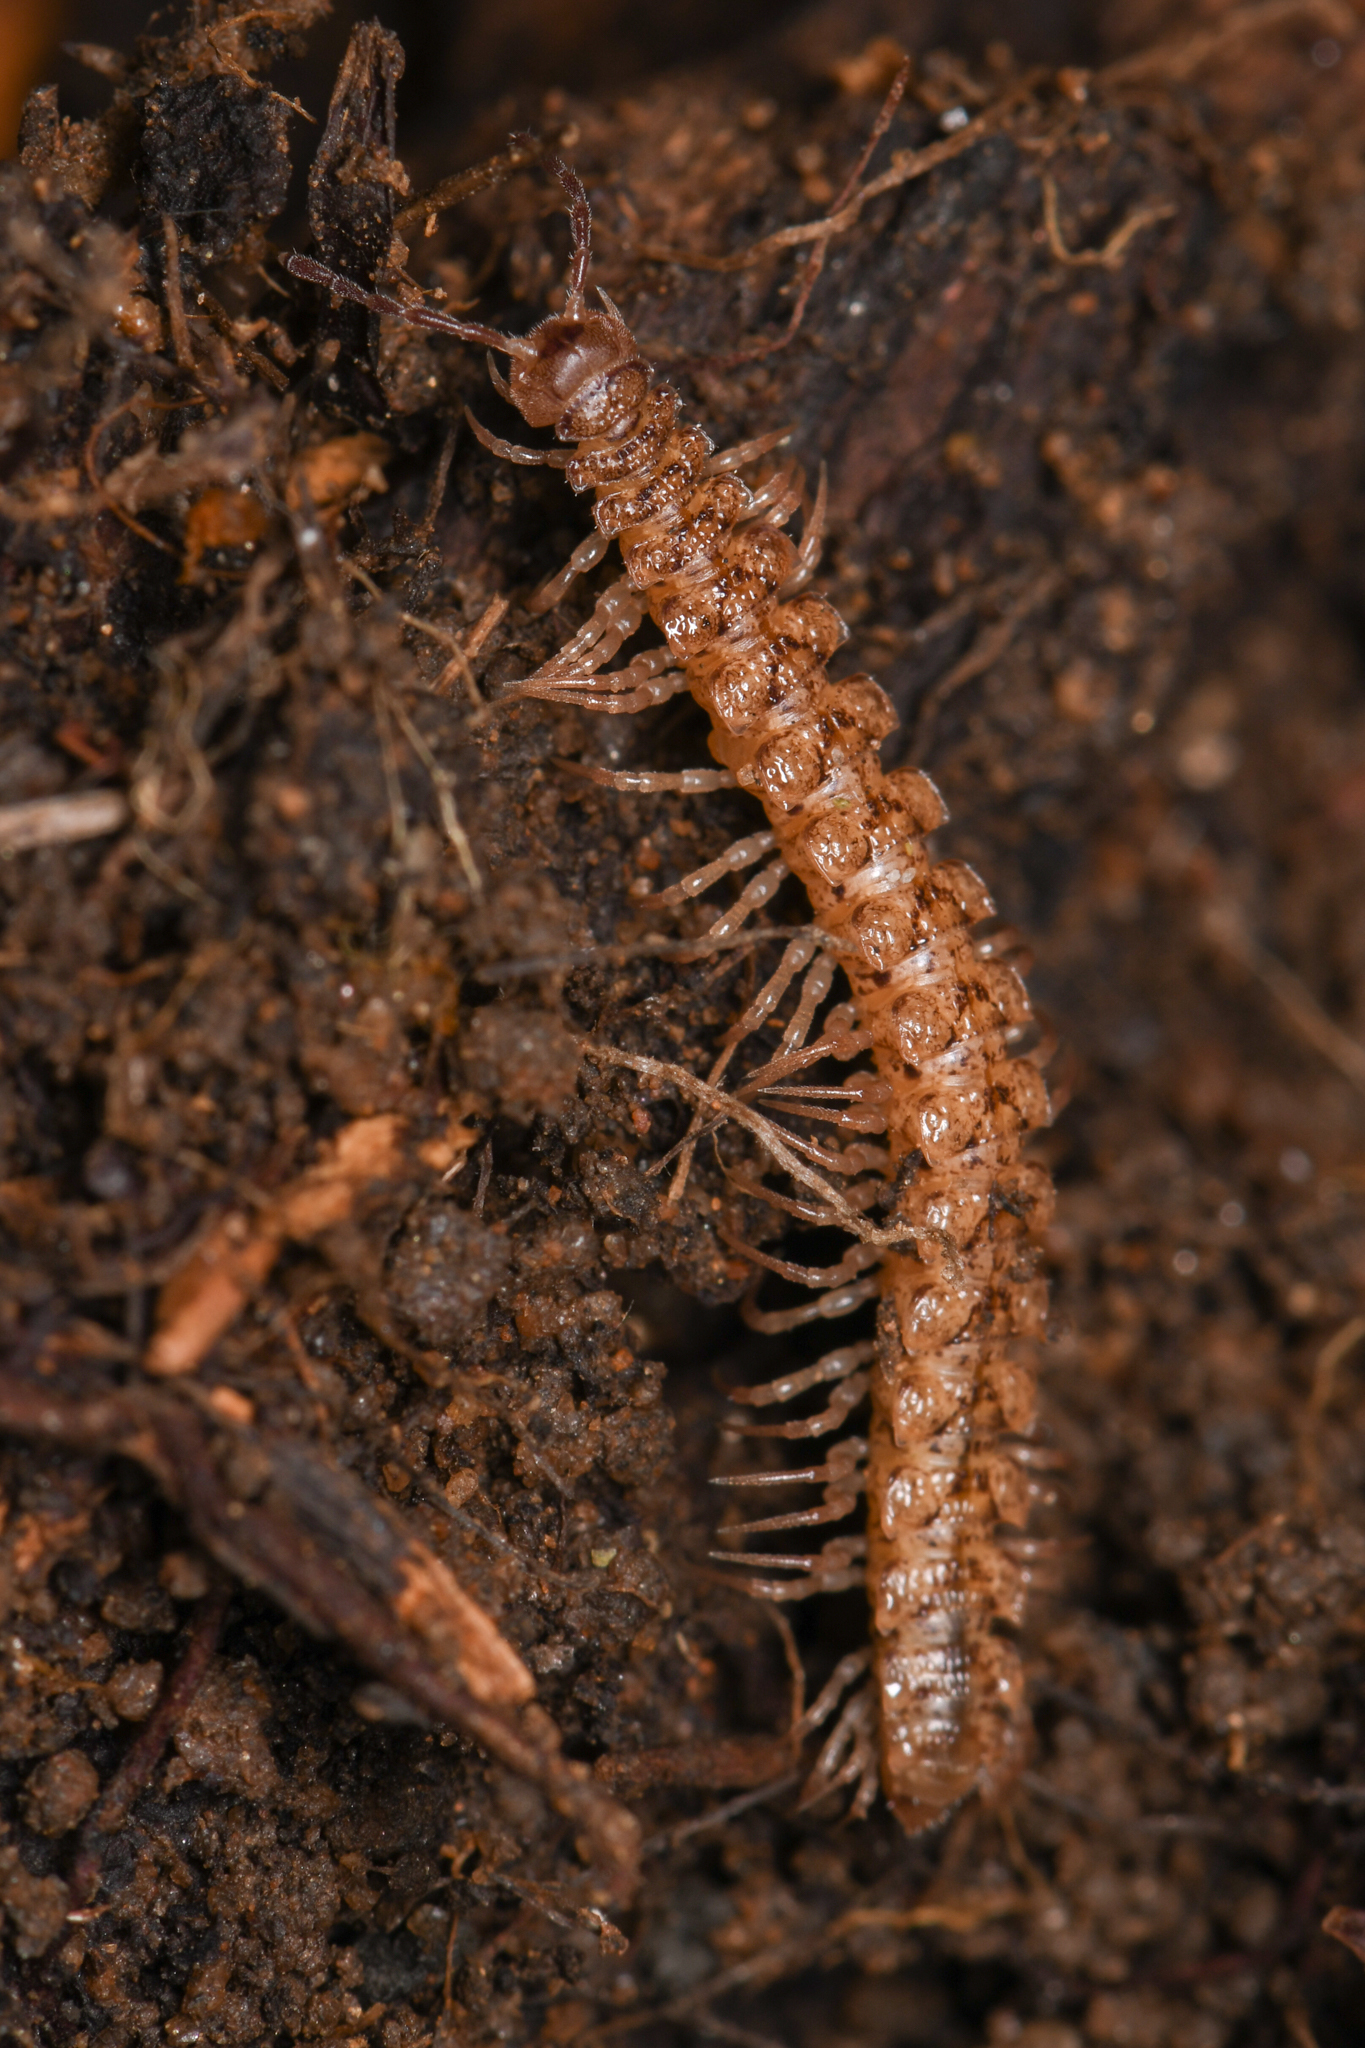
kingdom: Animalia
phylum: Arthropoda
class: Diplopoda
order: Polydesmida
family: Nearctodesmidae
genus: Harpogonopus
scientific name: Harpogonopus confluentus
